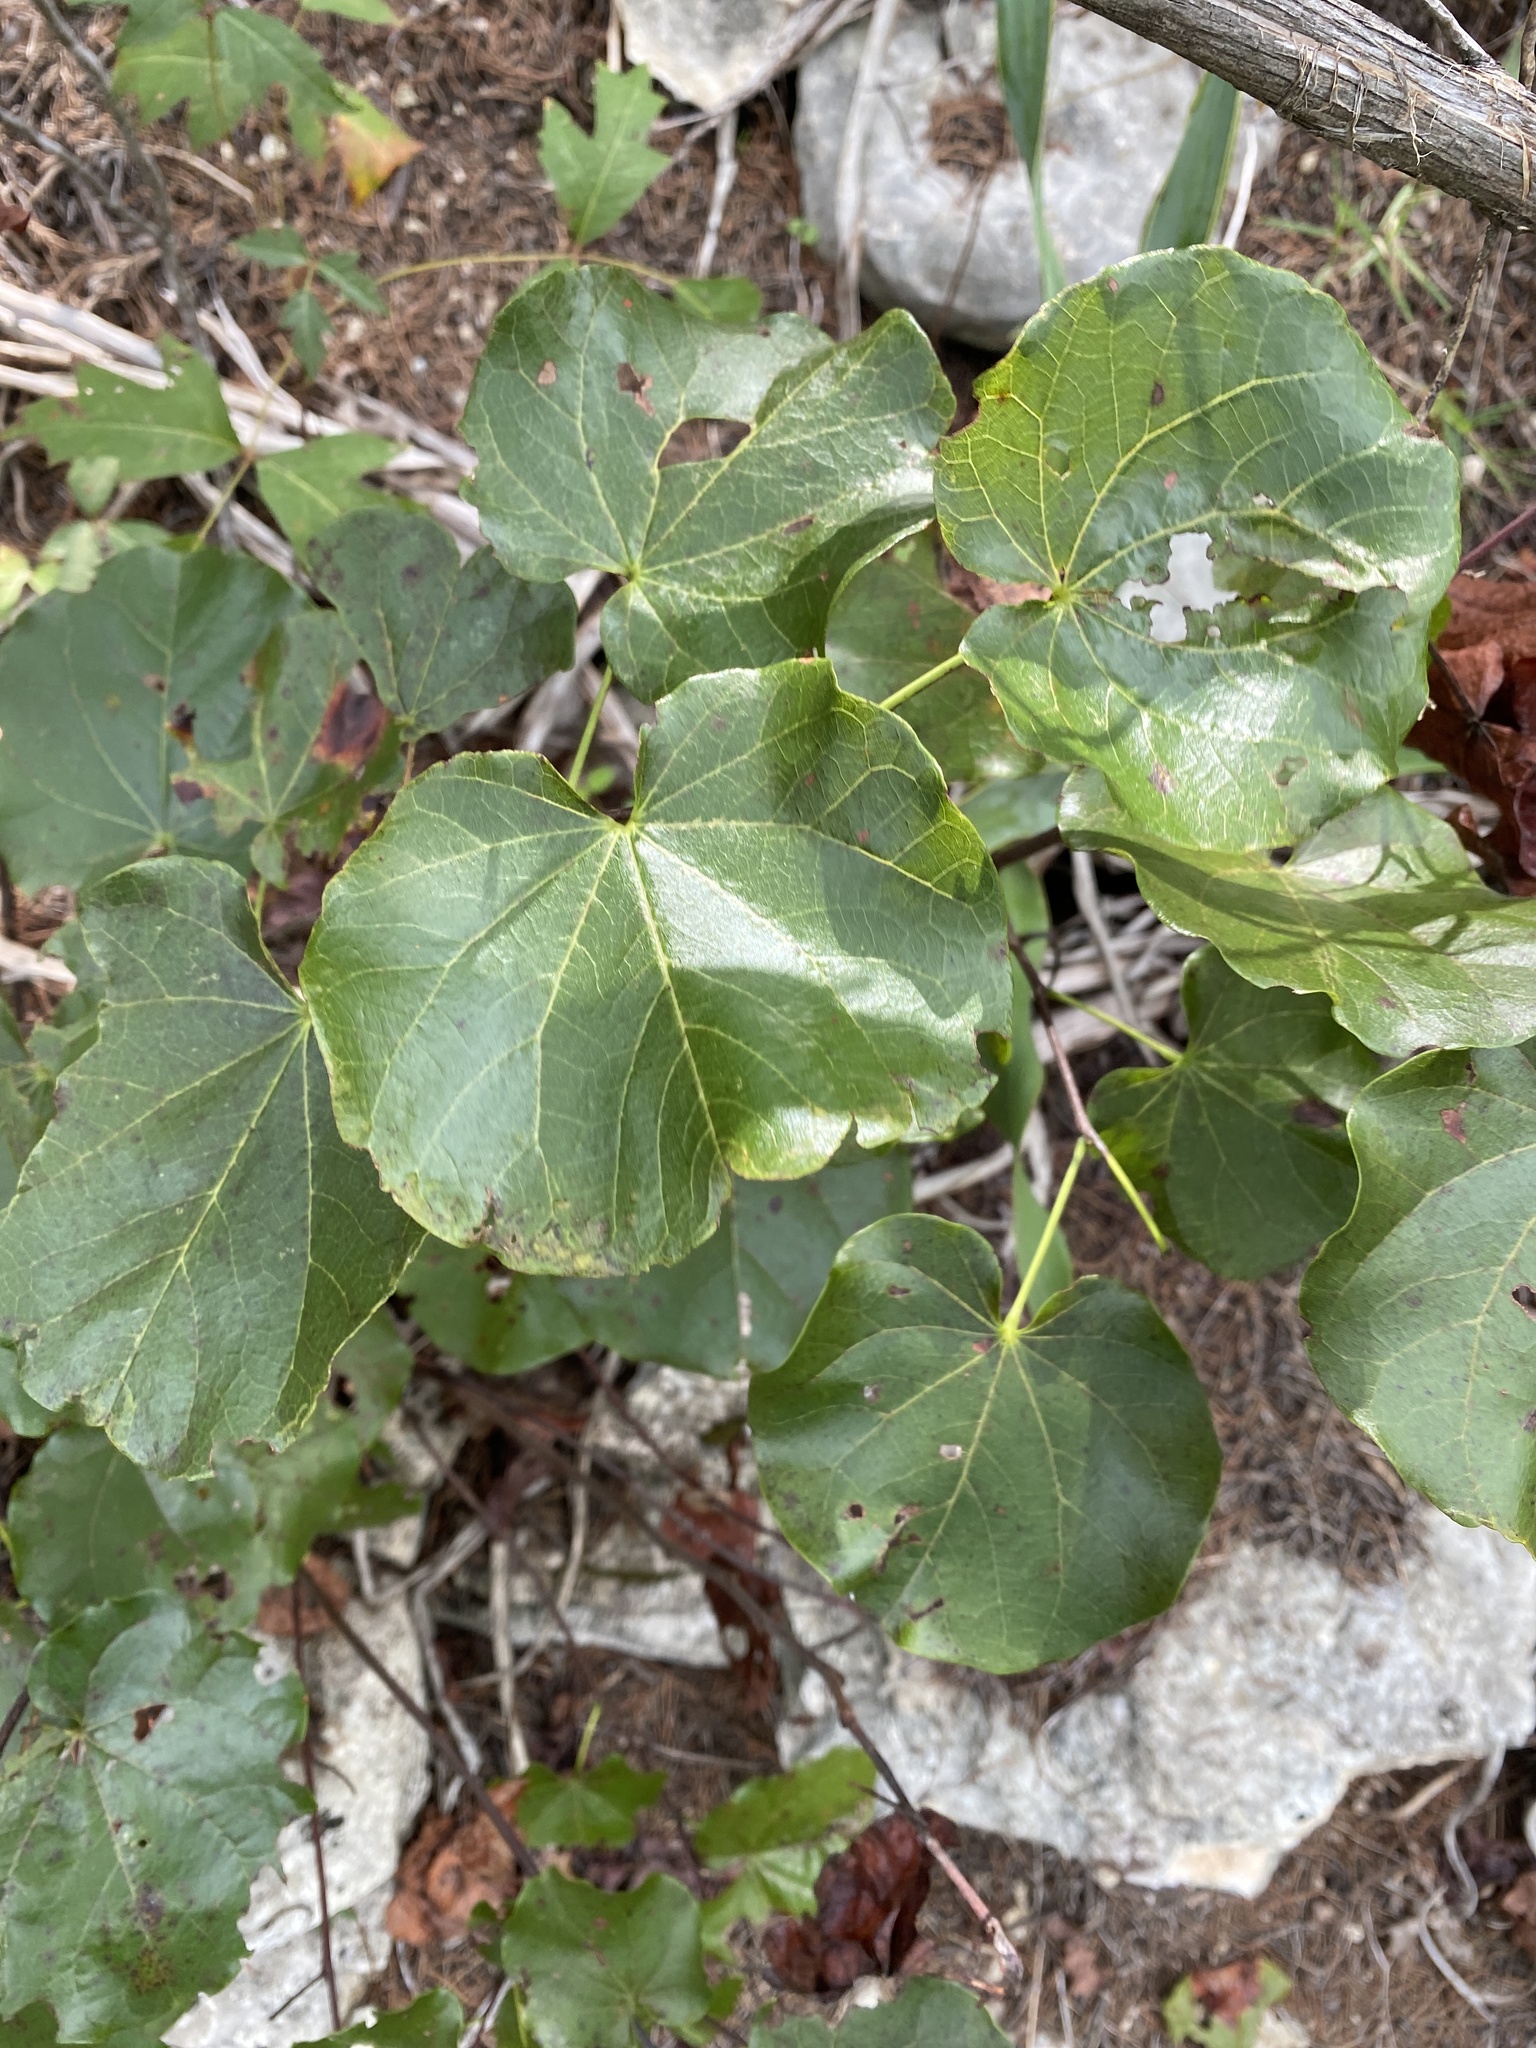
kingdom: Plantae
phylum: Tracheophyta
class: Magnoliopsida
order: Fabales
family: Fabaceae
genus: Cercis
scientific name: Cercis canadensis
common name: Eastern redbud
